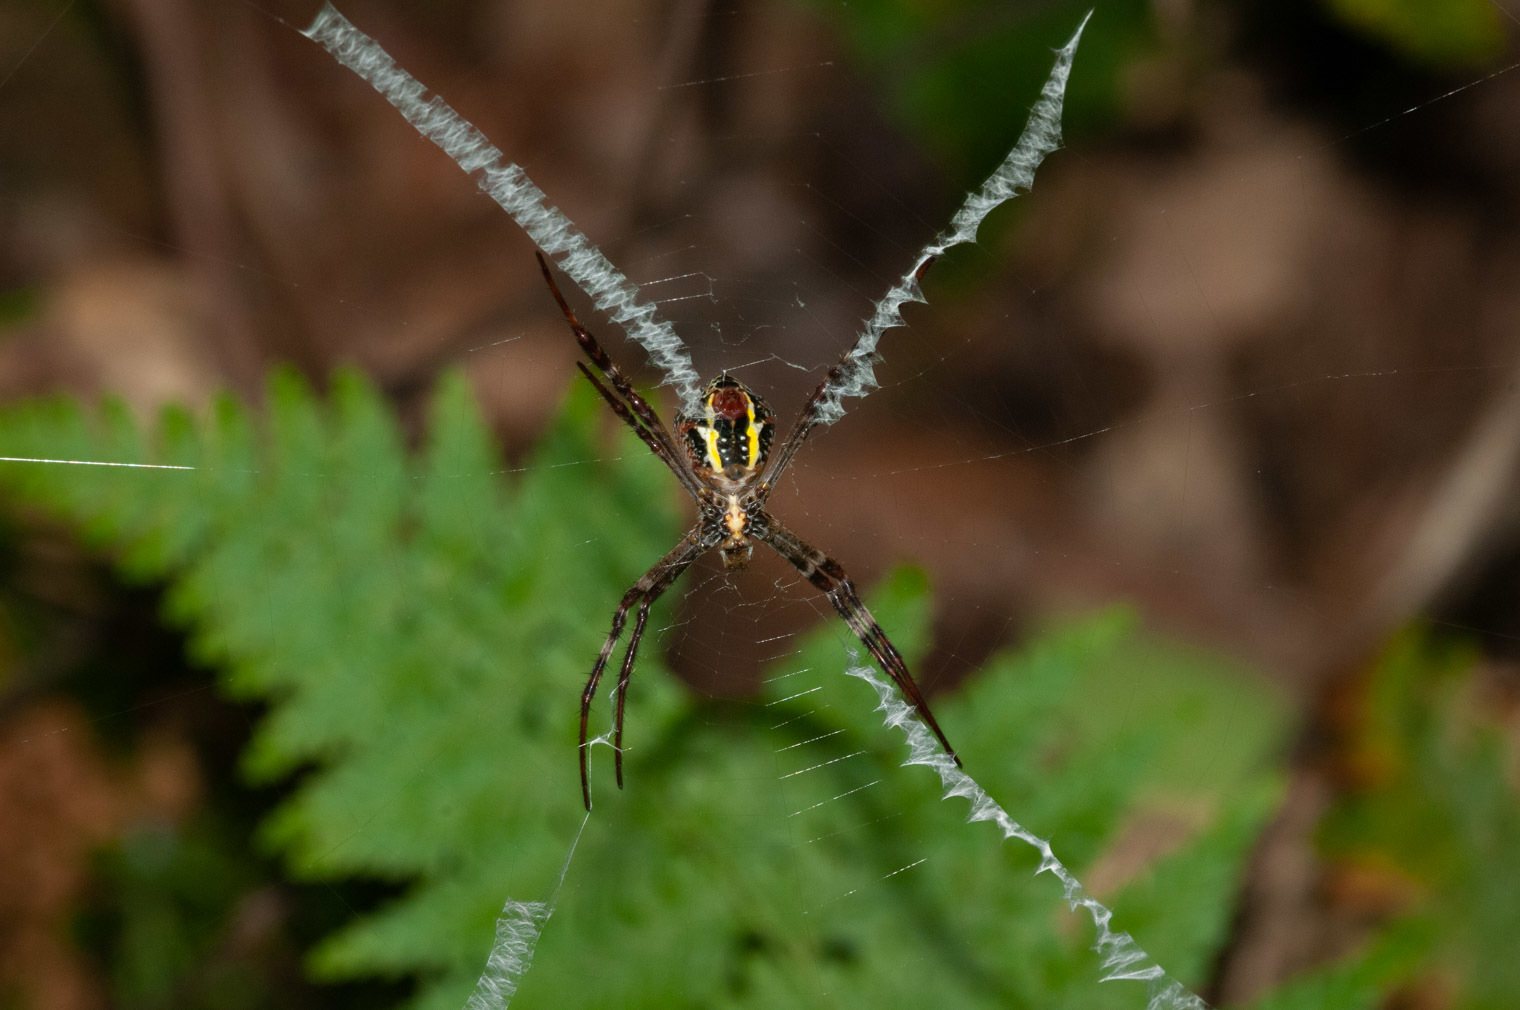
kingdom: Animalia
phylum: Arthropoda
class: Arachnida
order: Araneae
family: Araneidae
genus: Argiope
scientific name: Argiope keyserlingi
